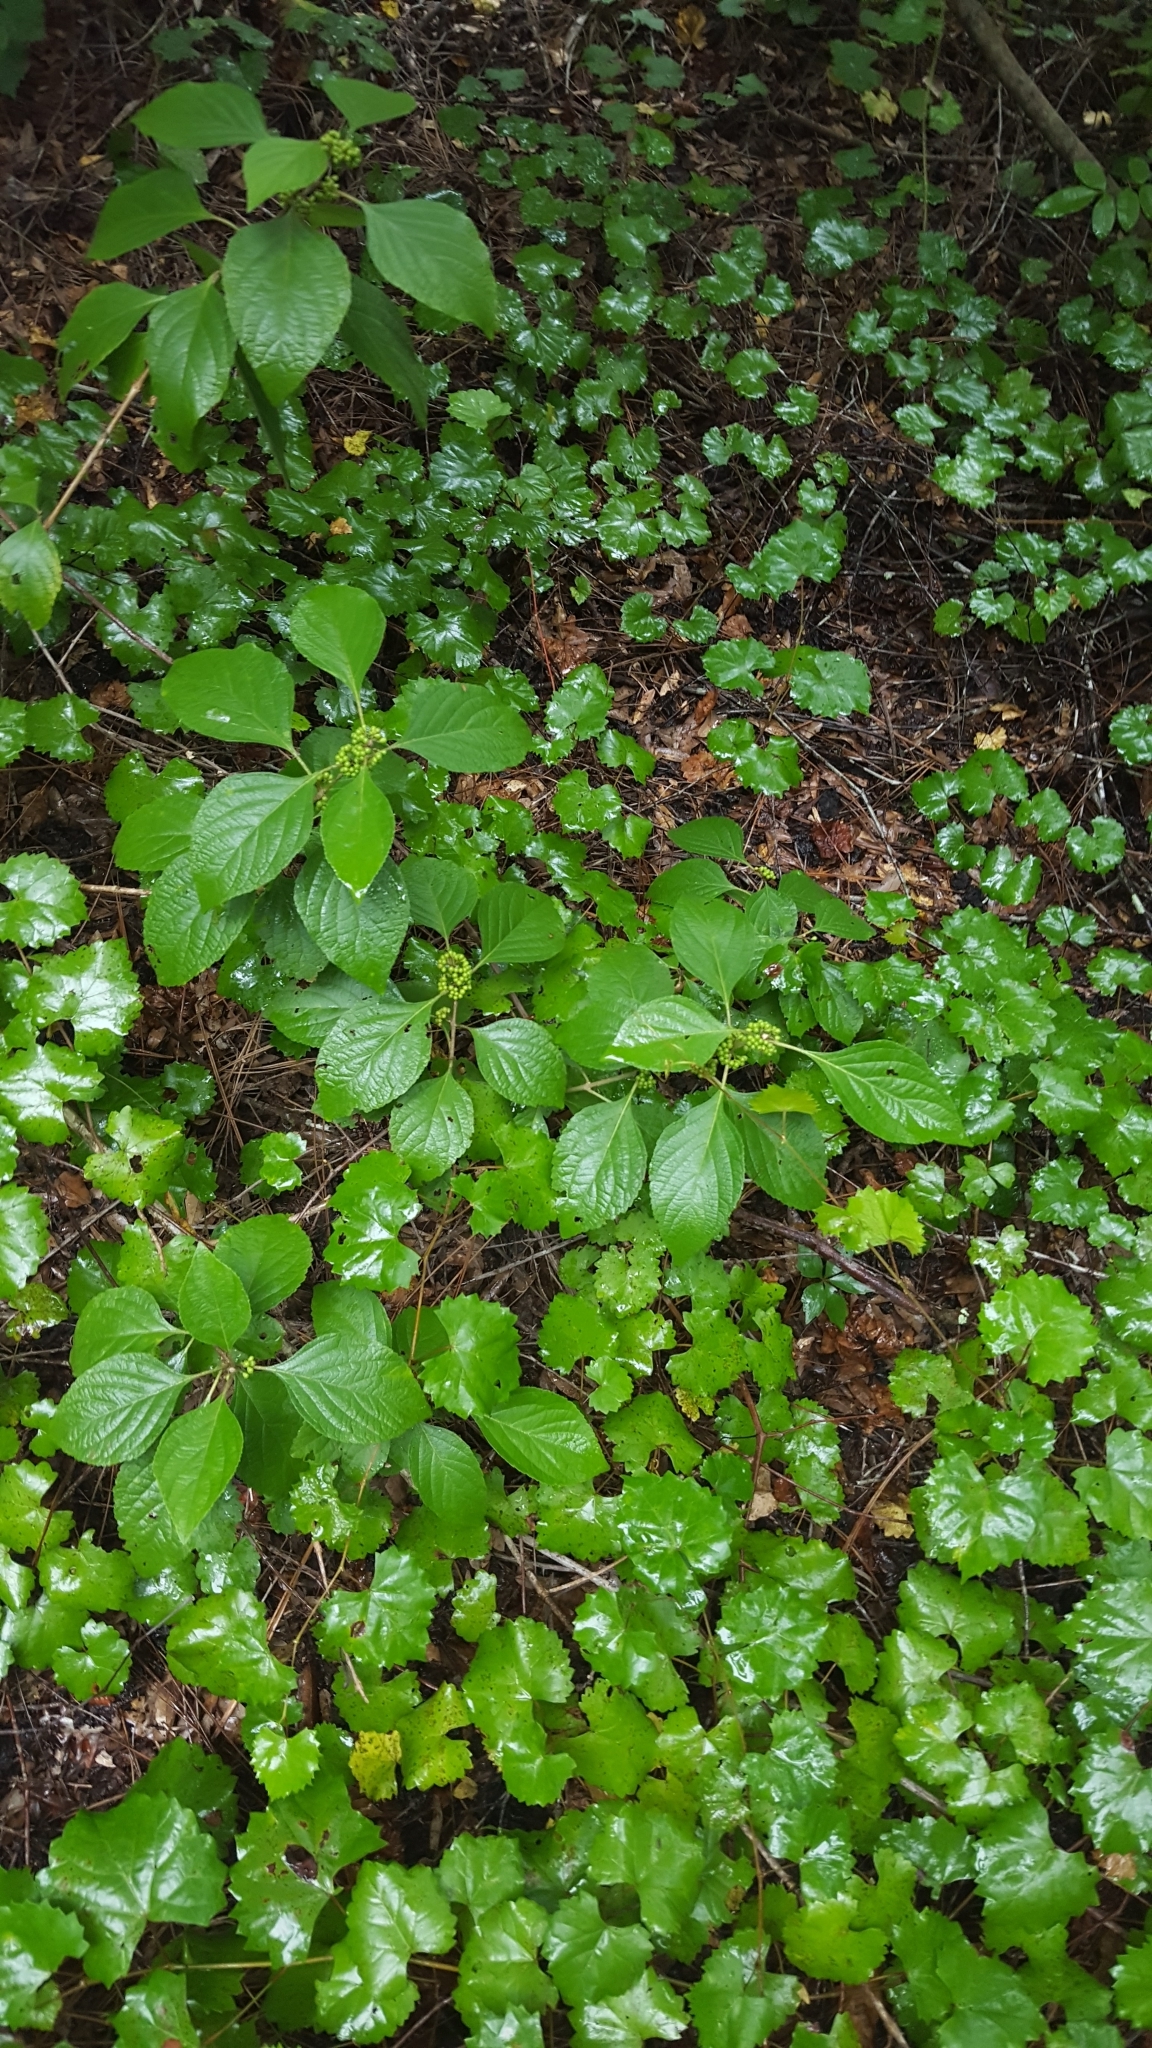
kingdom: Plantae
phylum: Tracheophyta
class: Magnoliopsida
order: Lamiales
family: Lamiaceae
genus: Callicarpa
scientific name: Callicarpa americana
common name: American beautyberry
